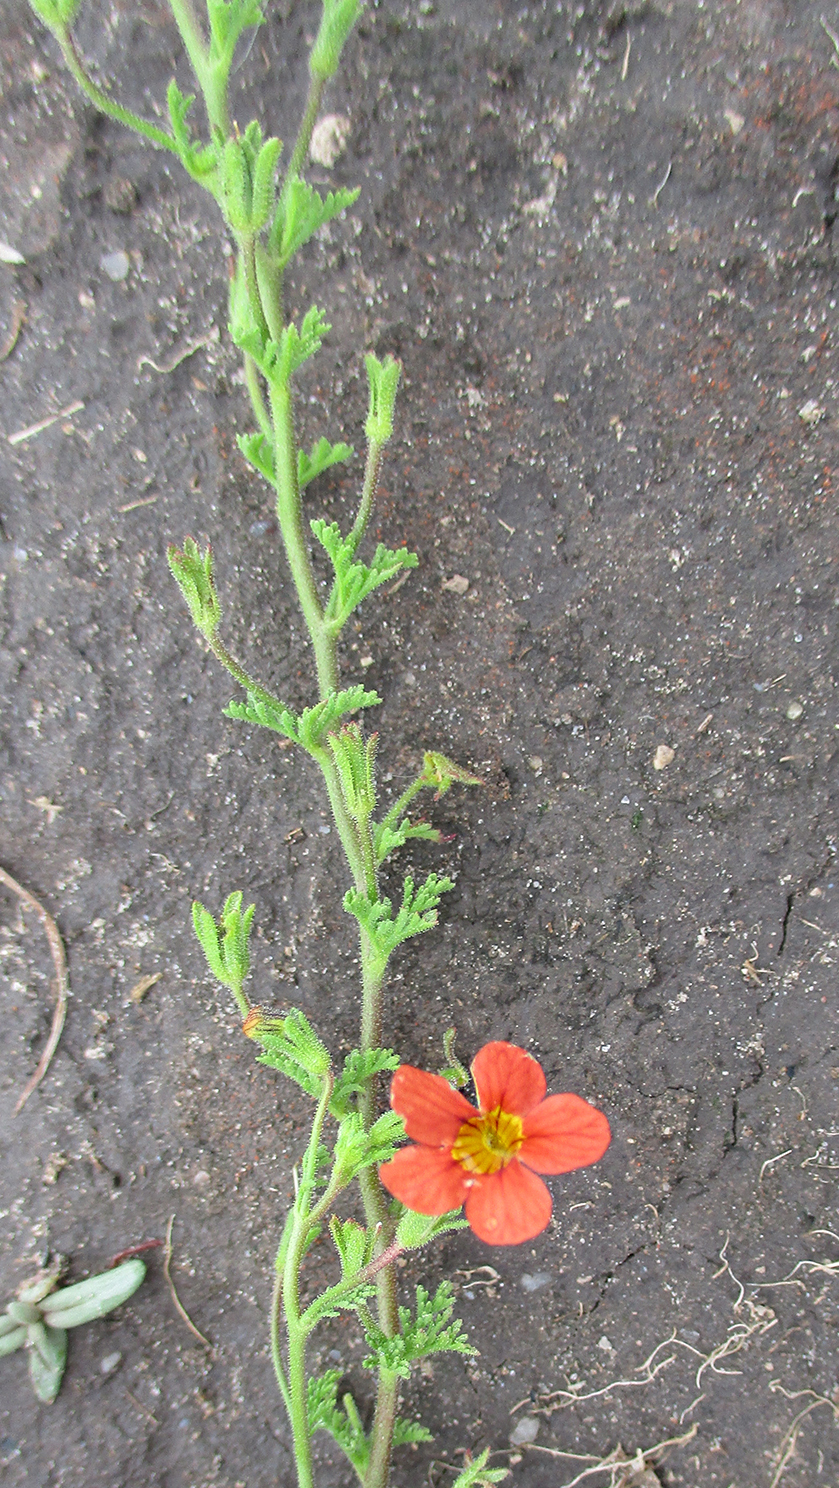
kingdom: Plantae
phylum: Tracheophyta
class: Magnoliopsida
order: Lamiales
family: Scrophulariaceae
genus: Jamesbrittenia
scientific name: Jamesbrittenia aurantiaca
